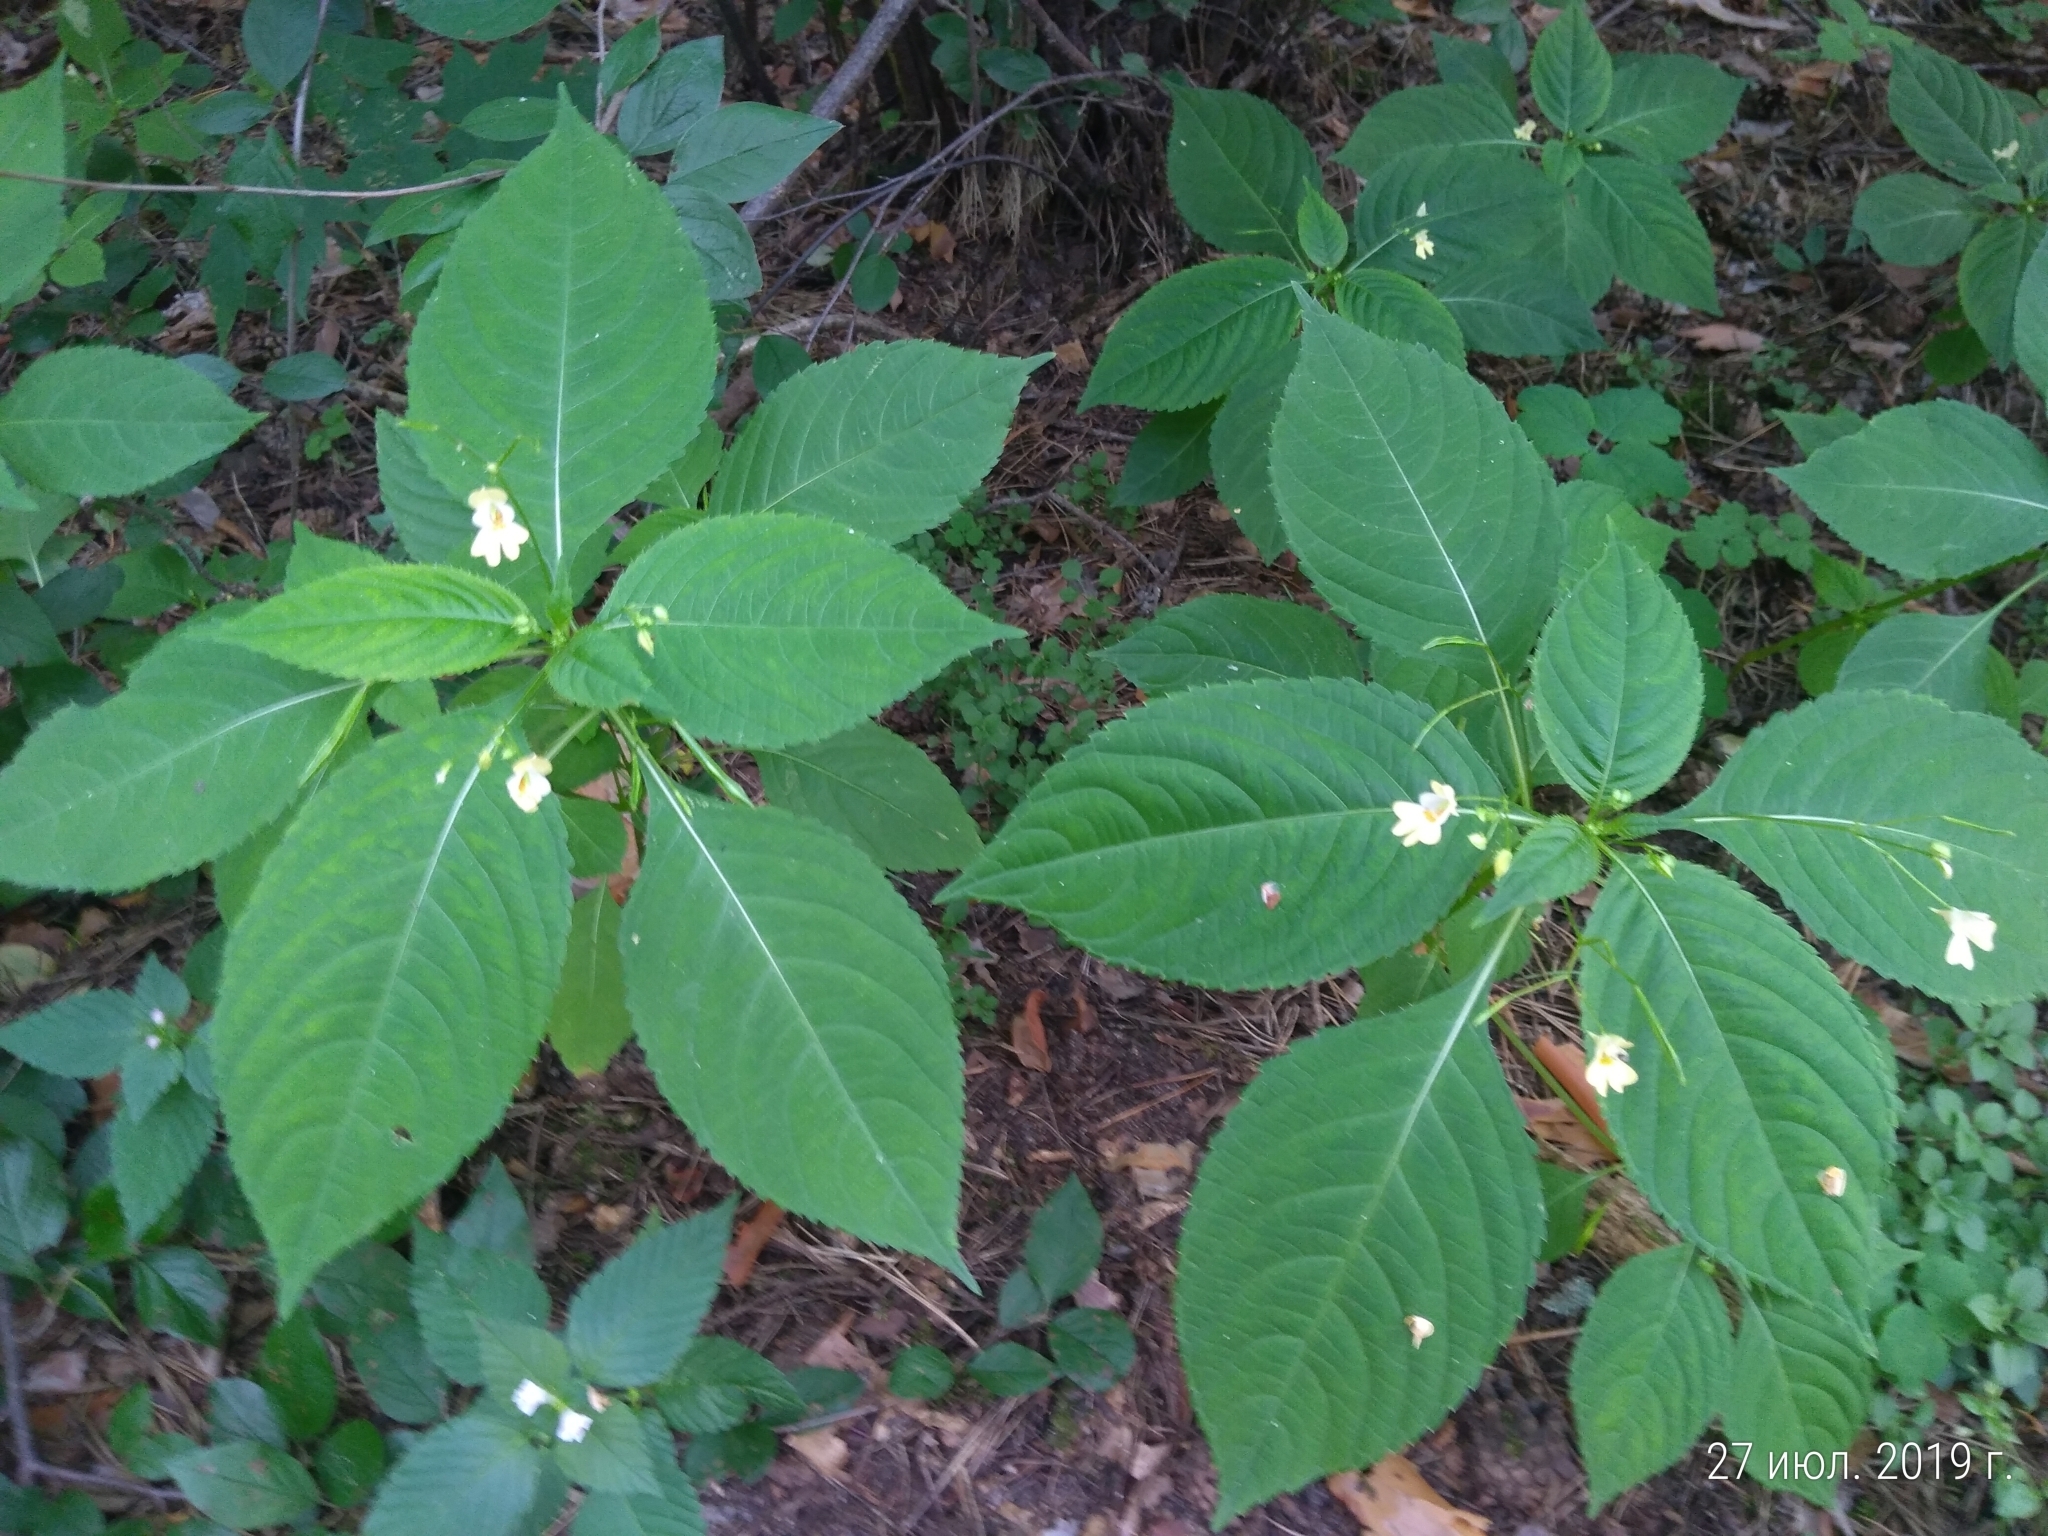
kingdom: Plantae
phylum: Tracheophyta
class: Magnoliopsida
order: Ericales
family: Balsaminaceae
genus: Impatiens
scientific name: Impatiens parviflora
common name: Small balsam
